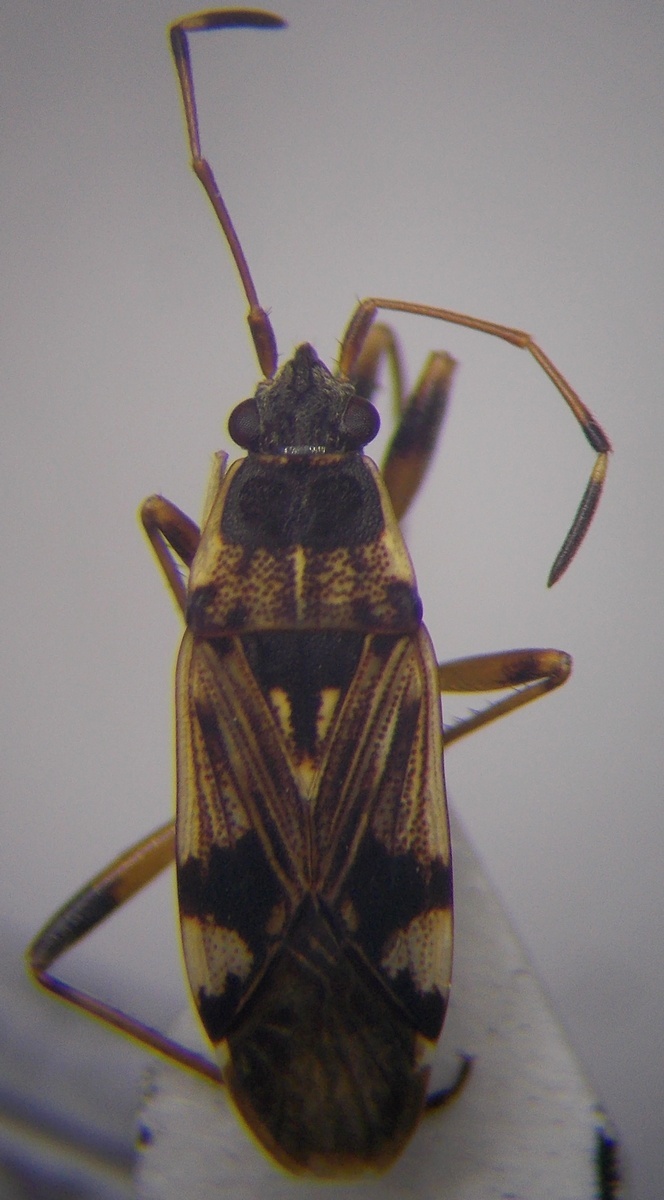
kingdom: Animalia
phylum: Arthropoda
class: Insecta
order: Hemiptera
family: Rhyparochromidae
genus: Beosus
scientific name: Beosus maritimus
